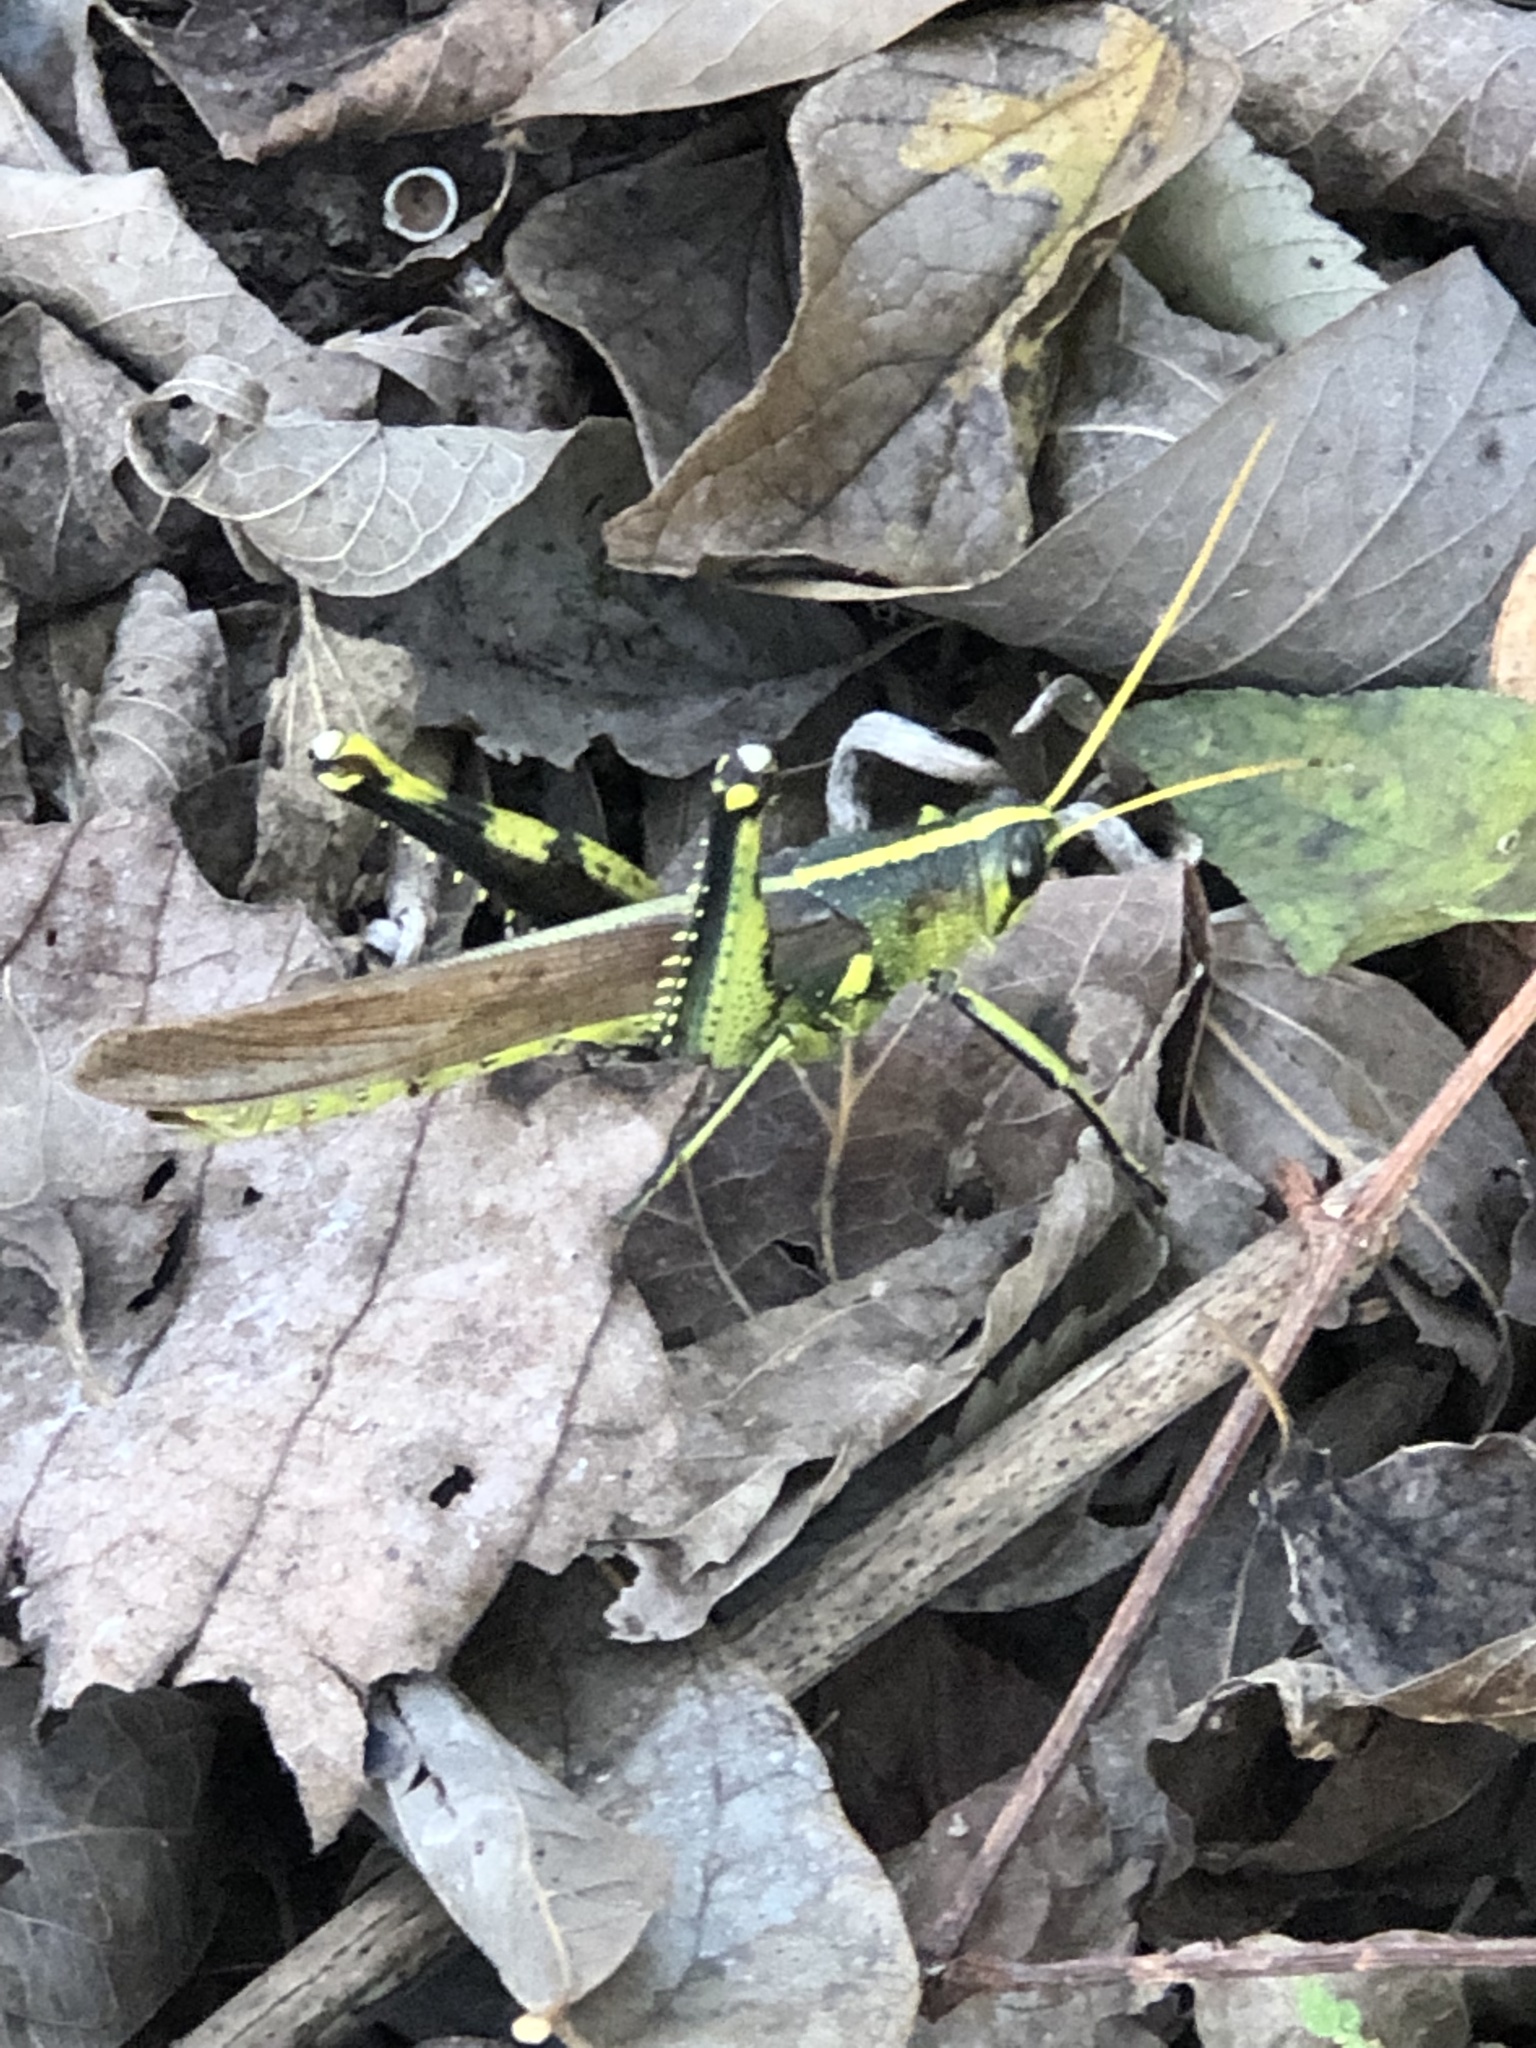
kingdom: Animalia
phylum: Arthropoda
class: Insecta
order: Orthoptera
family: Acrididae
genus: Schistocerca
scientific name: Schistocerca obscura
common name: Obscure bird grasshopper
